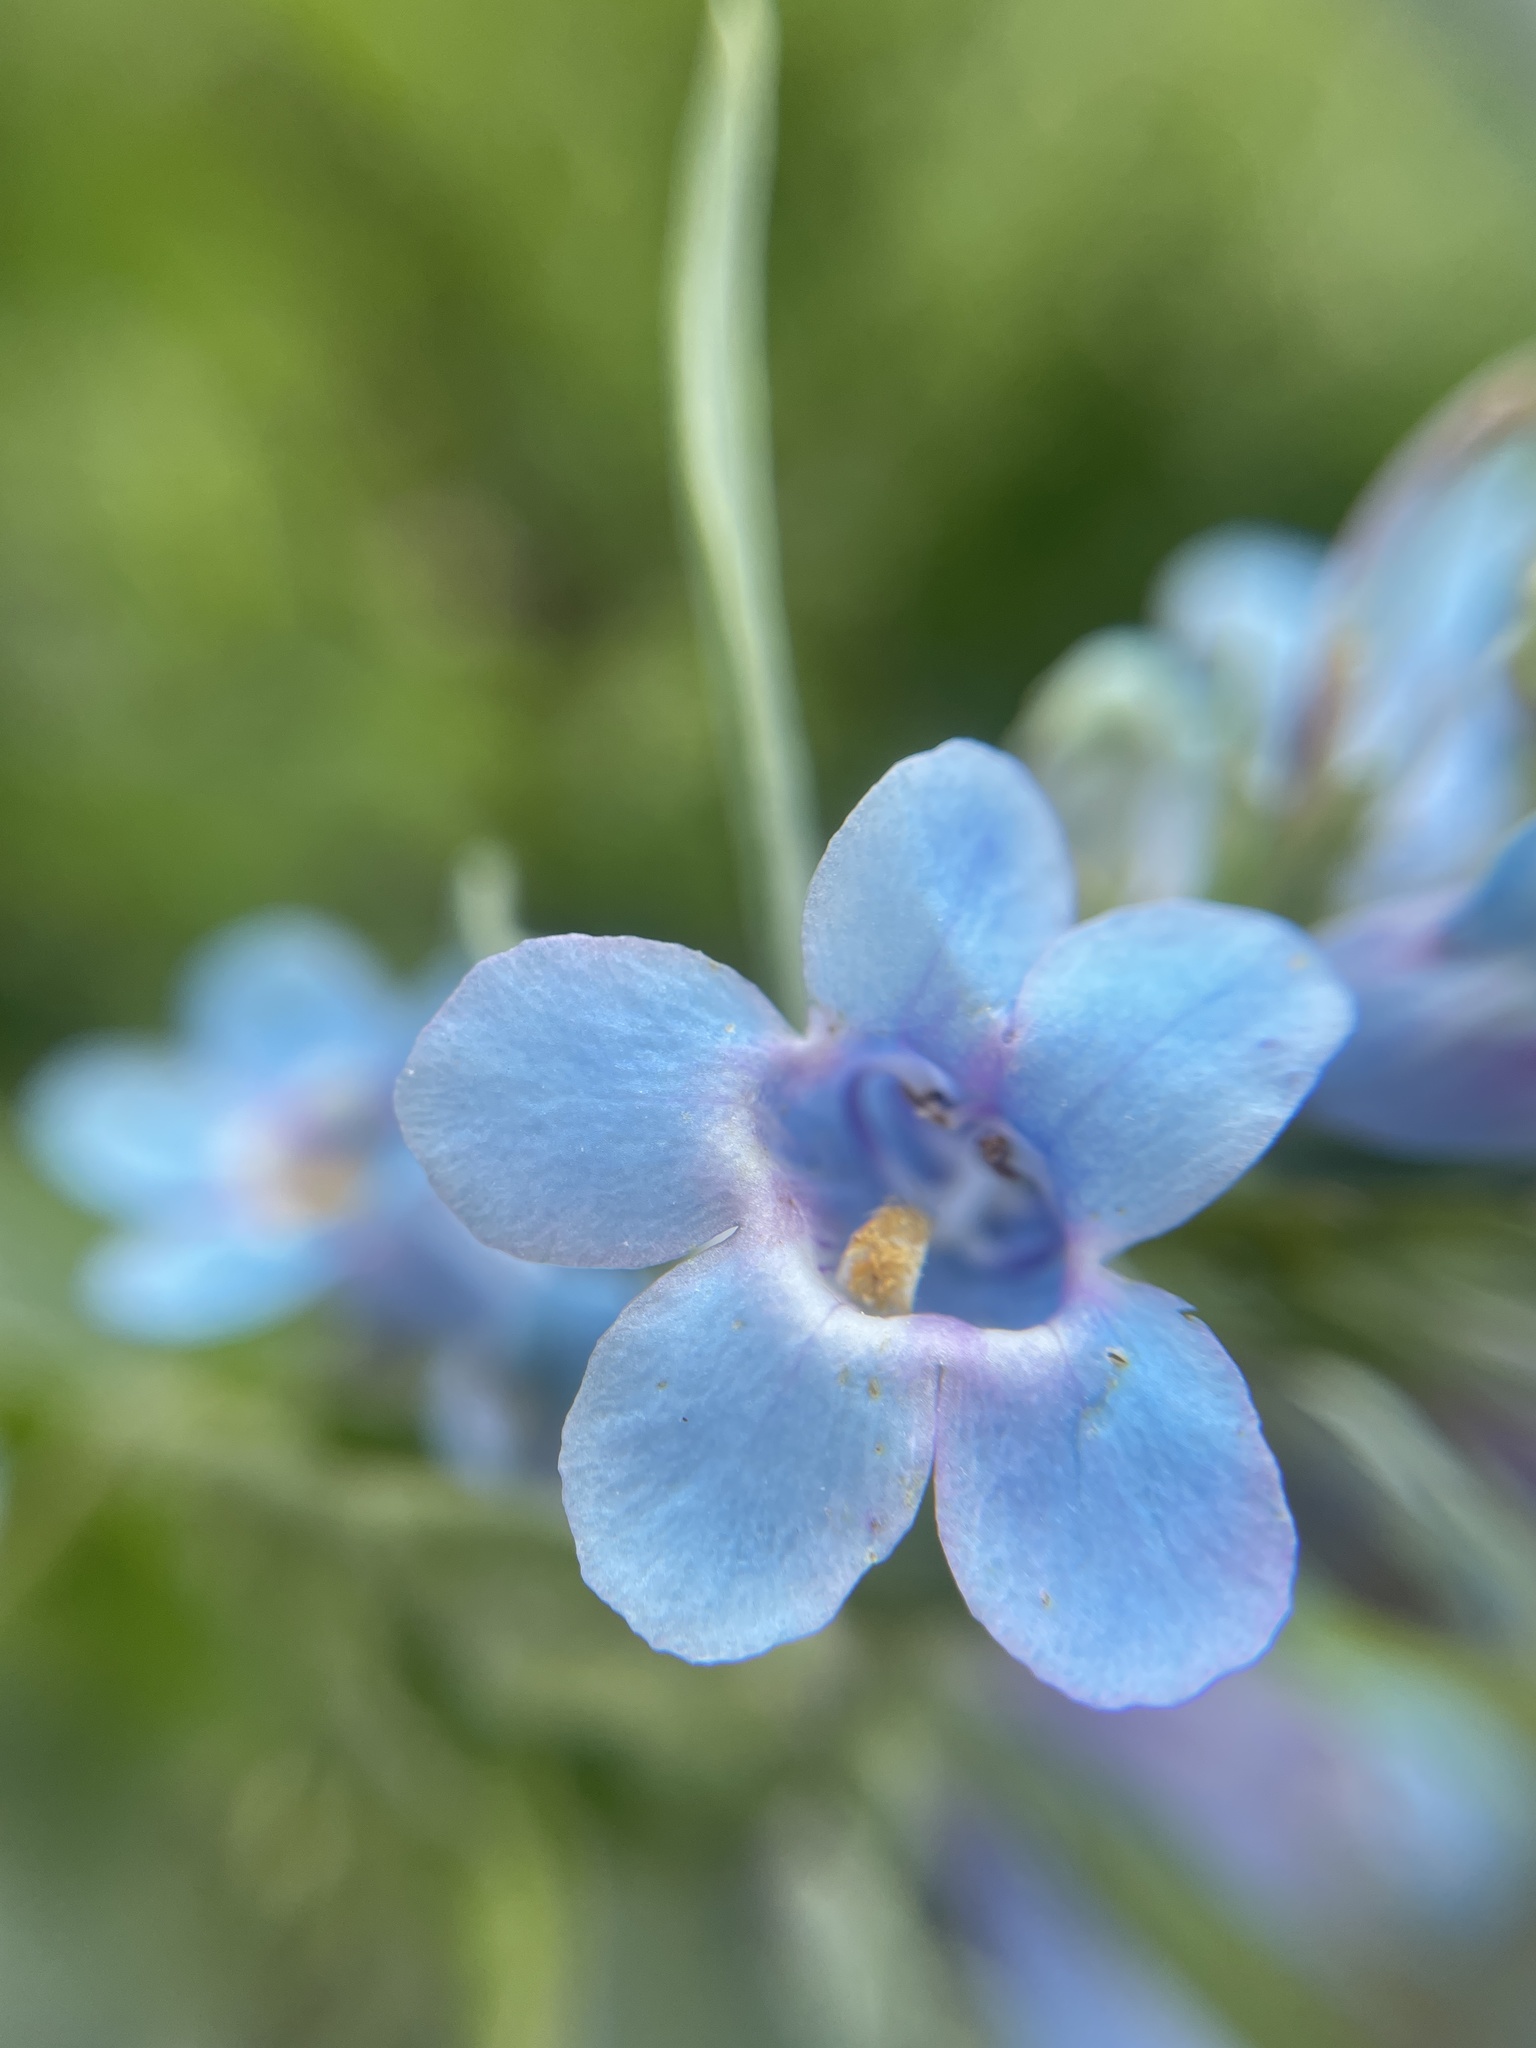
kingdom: Plantae
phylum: Tracheophyta
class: Magnoliopsida
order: Lamiales
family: Plantaginaceae
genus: Penstemon
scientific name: Penstemon angustifolius
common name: Narrow beardtongue
